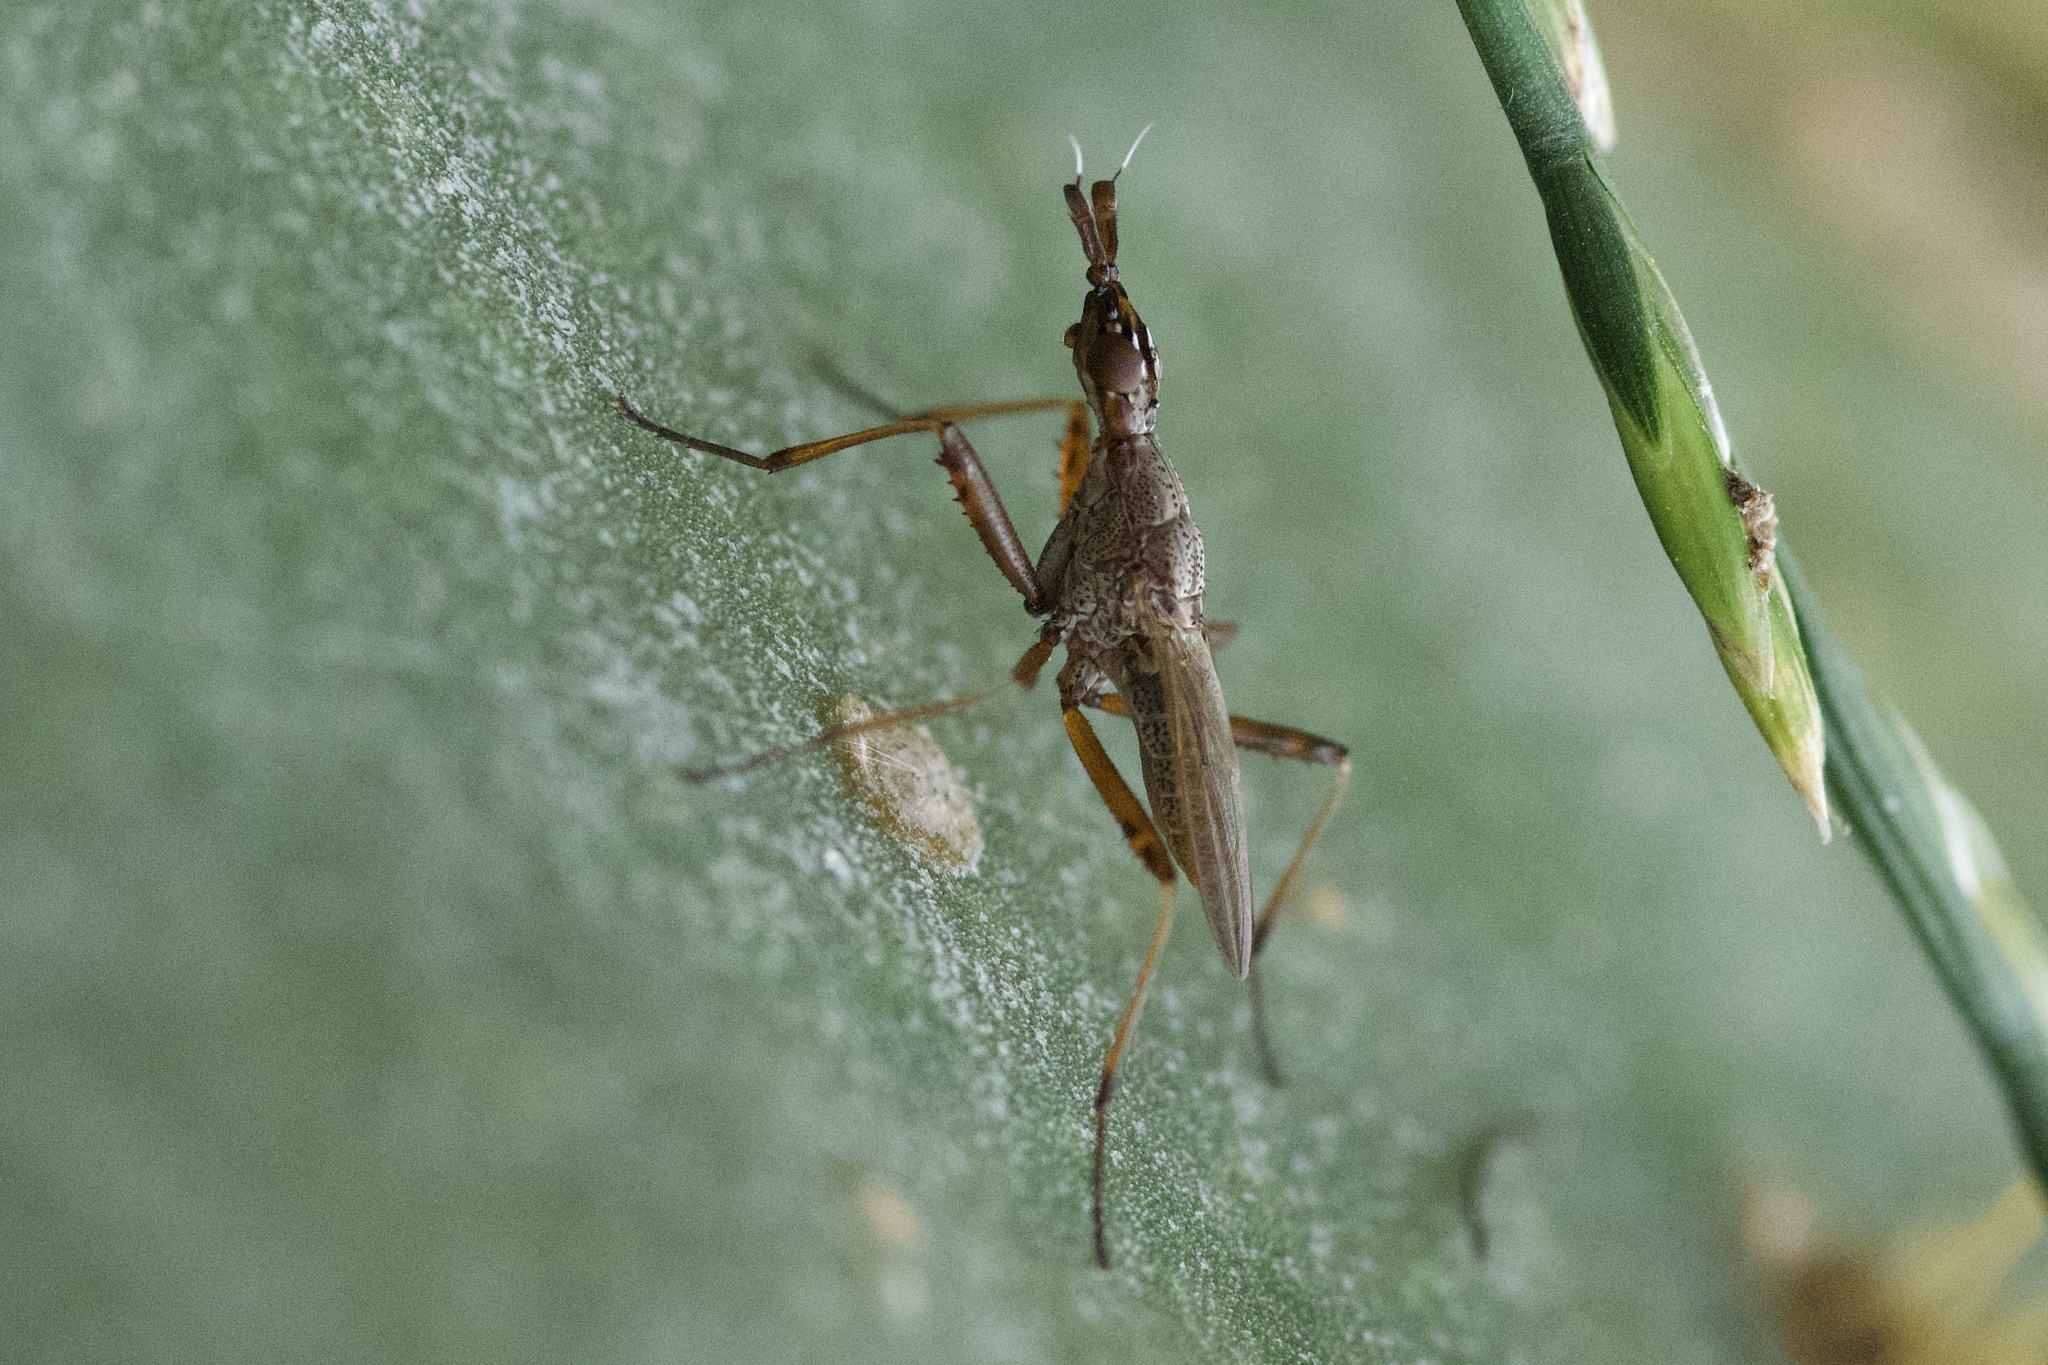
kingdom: Animalia
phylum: Arthropoda
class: Insecta
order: Diptera
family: Neriidae
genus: Odontoloxozus
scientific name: Odontoloxozus longicornis
